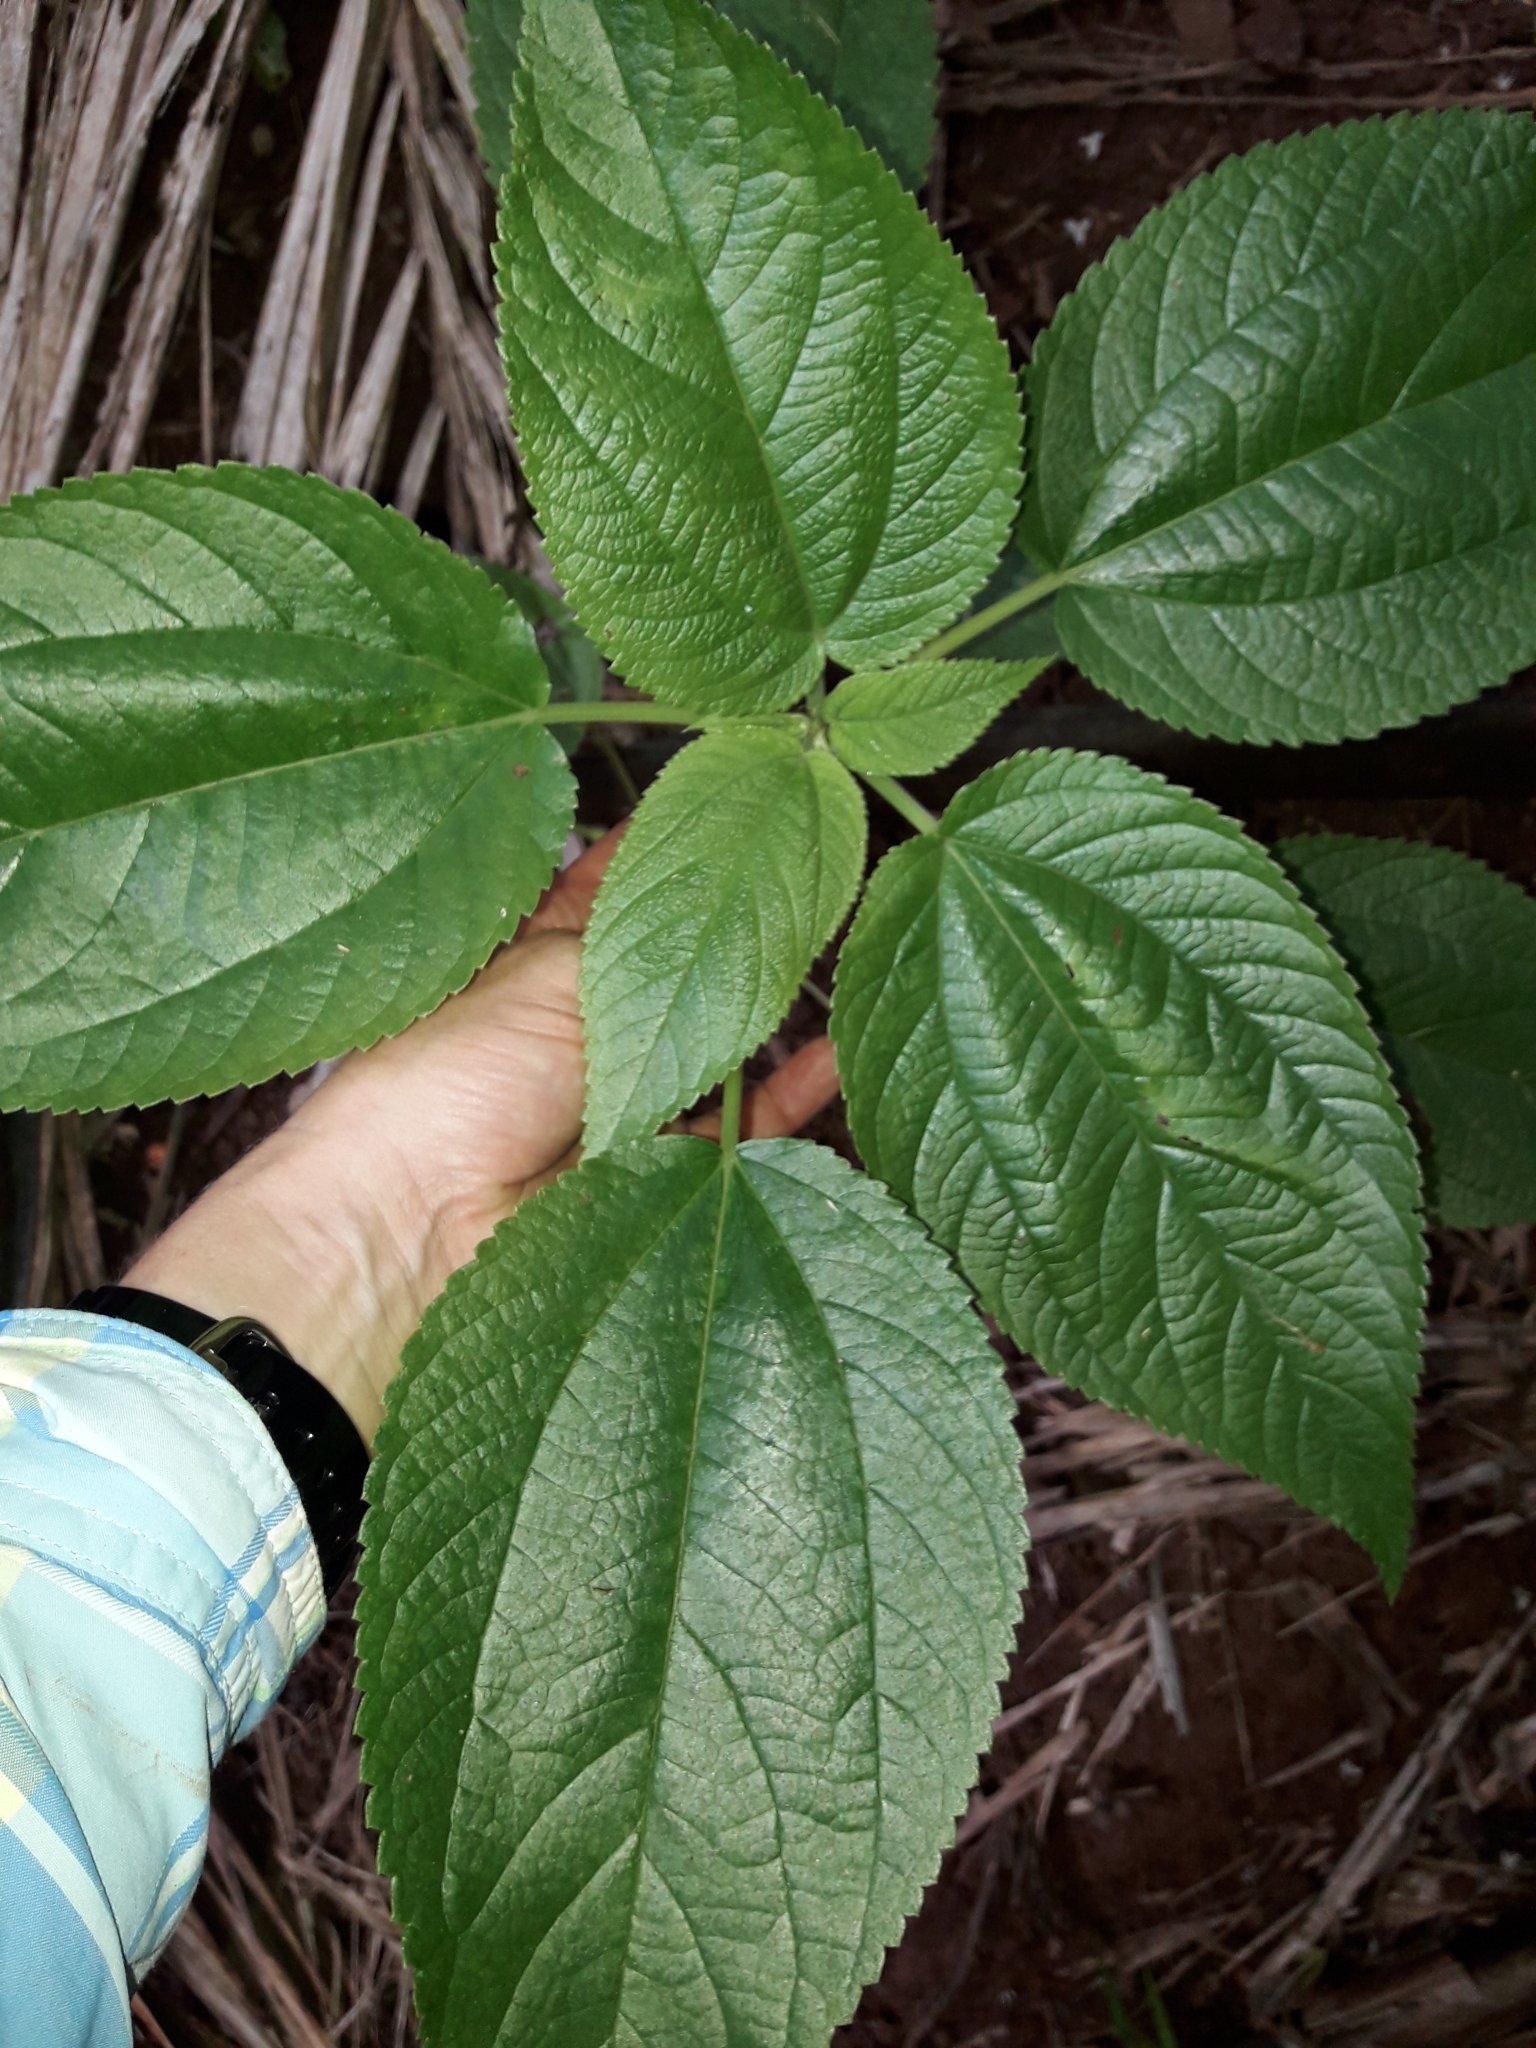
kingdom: Plantae
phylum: Tracheophyta
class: Magnoliopsida
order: Rosales
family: Urticaceae
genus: Pouzolzia
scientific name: Pouzolzia australis
